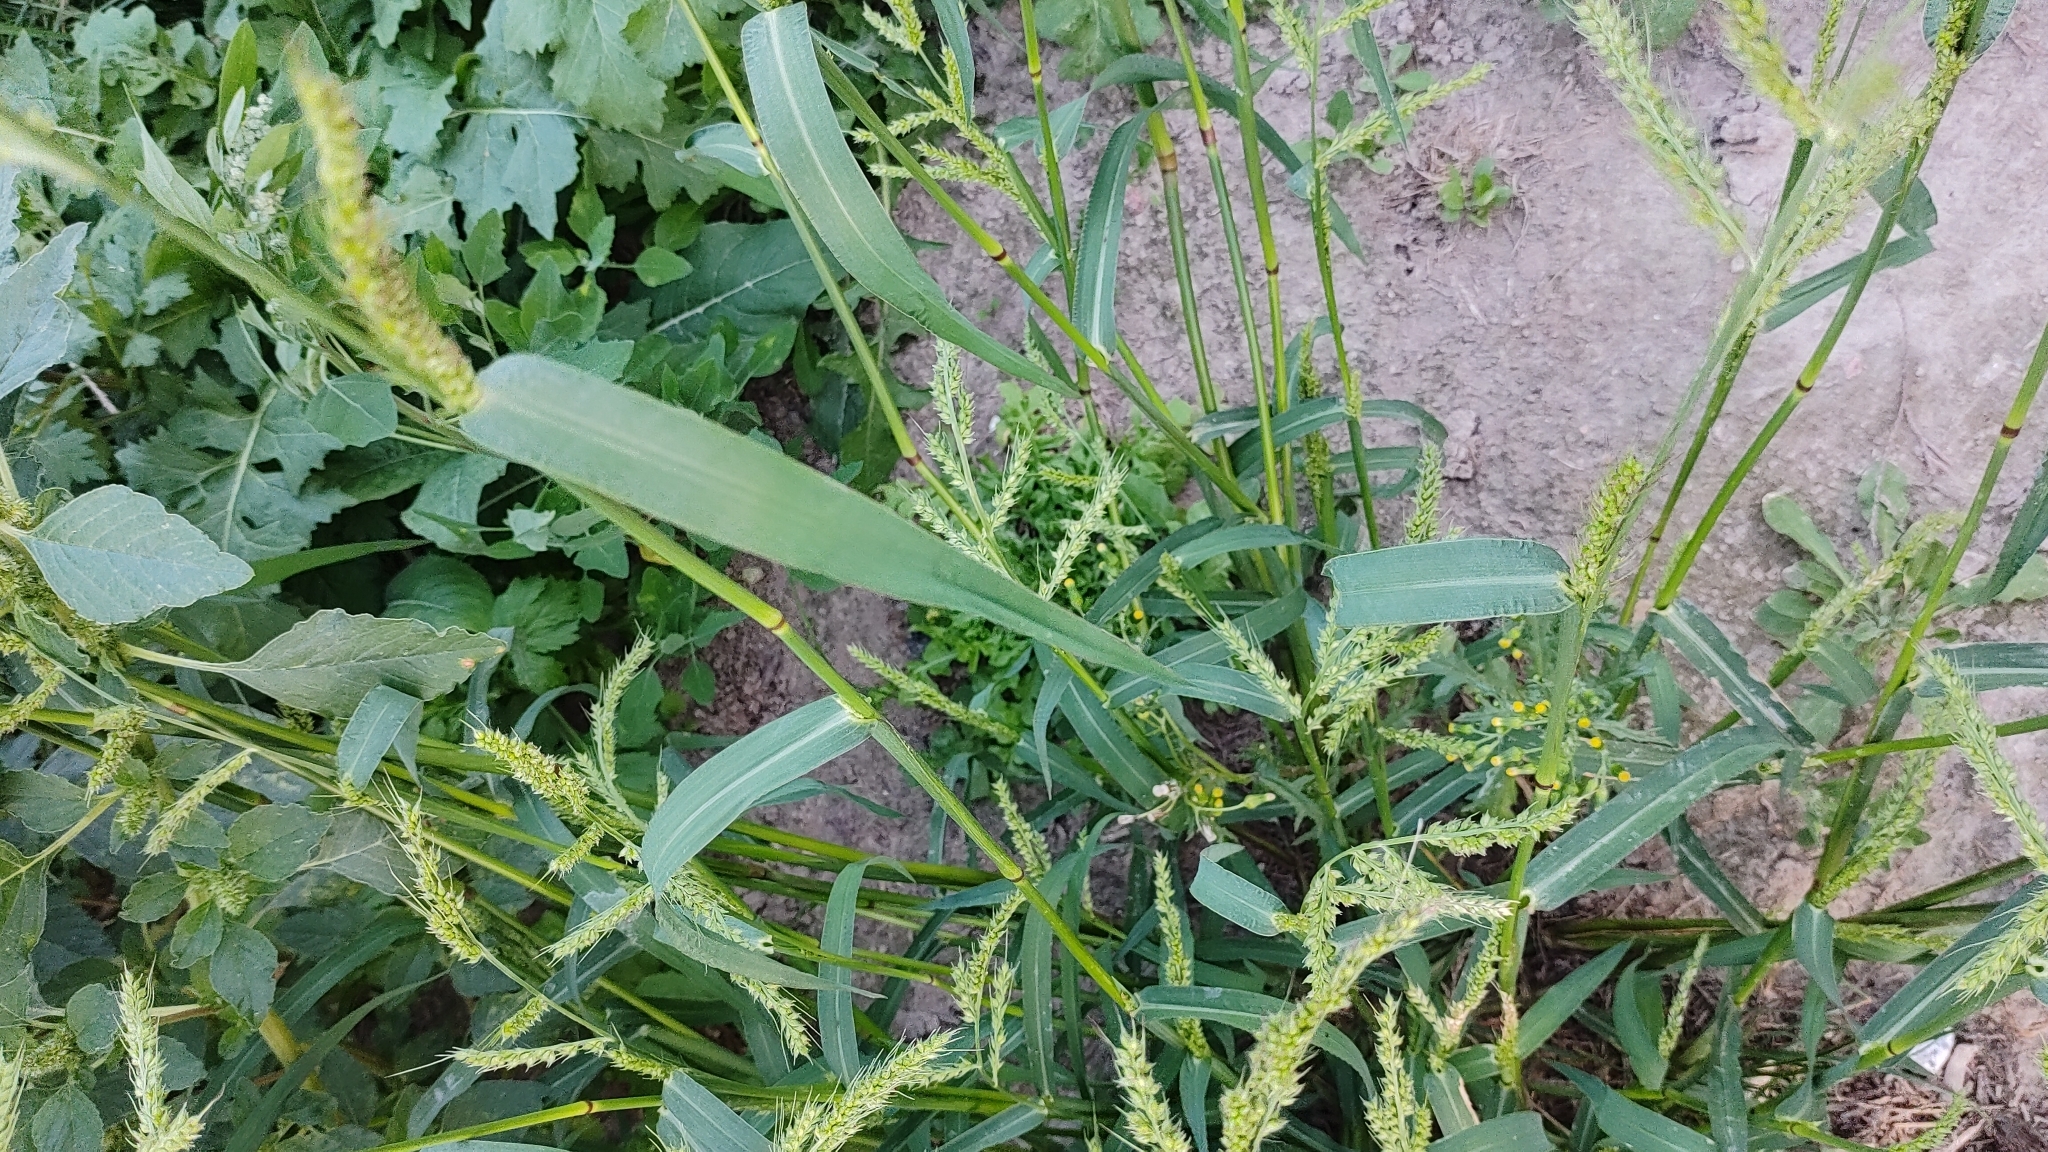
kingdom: Plantae
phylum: Tracheophyta
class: Liliopsida
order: Poales
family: Poaceae
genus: Echinochloa
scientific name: Echinochloa crus-galli
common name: Cockspur
